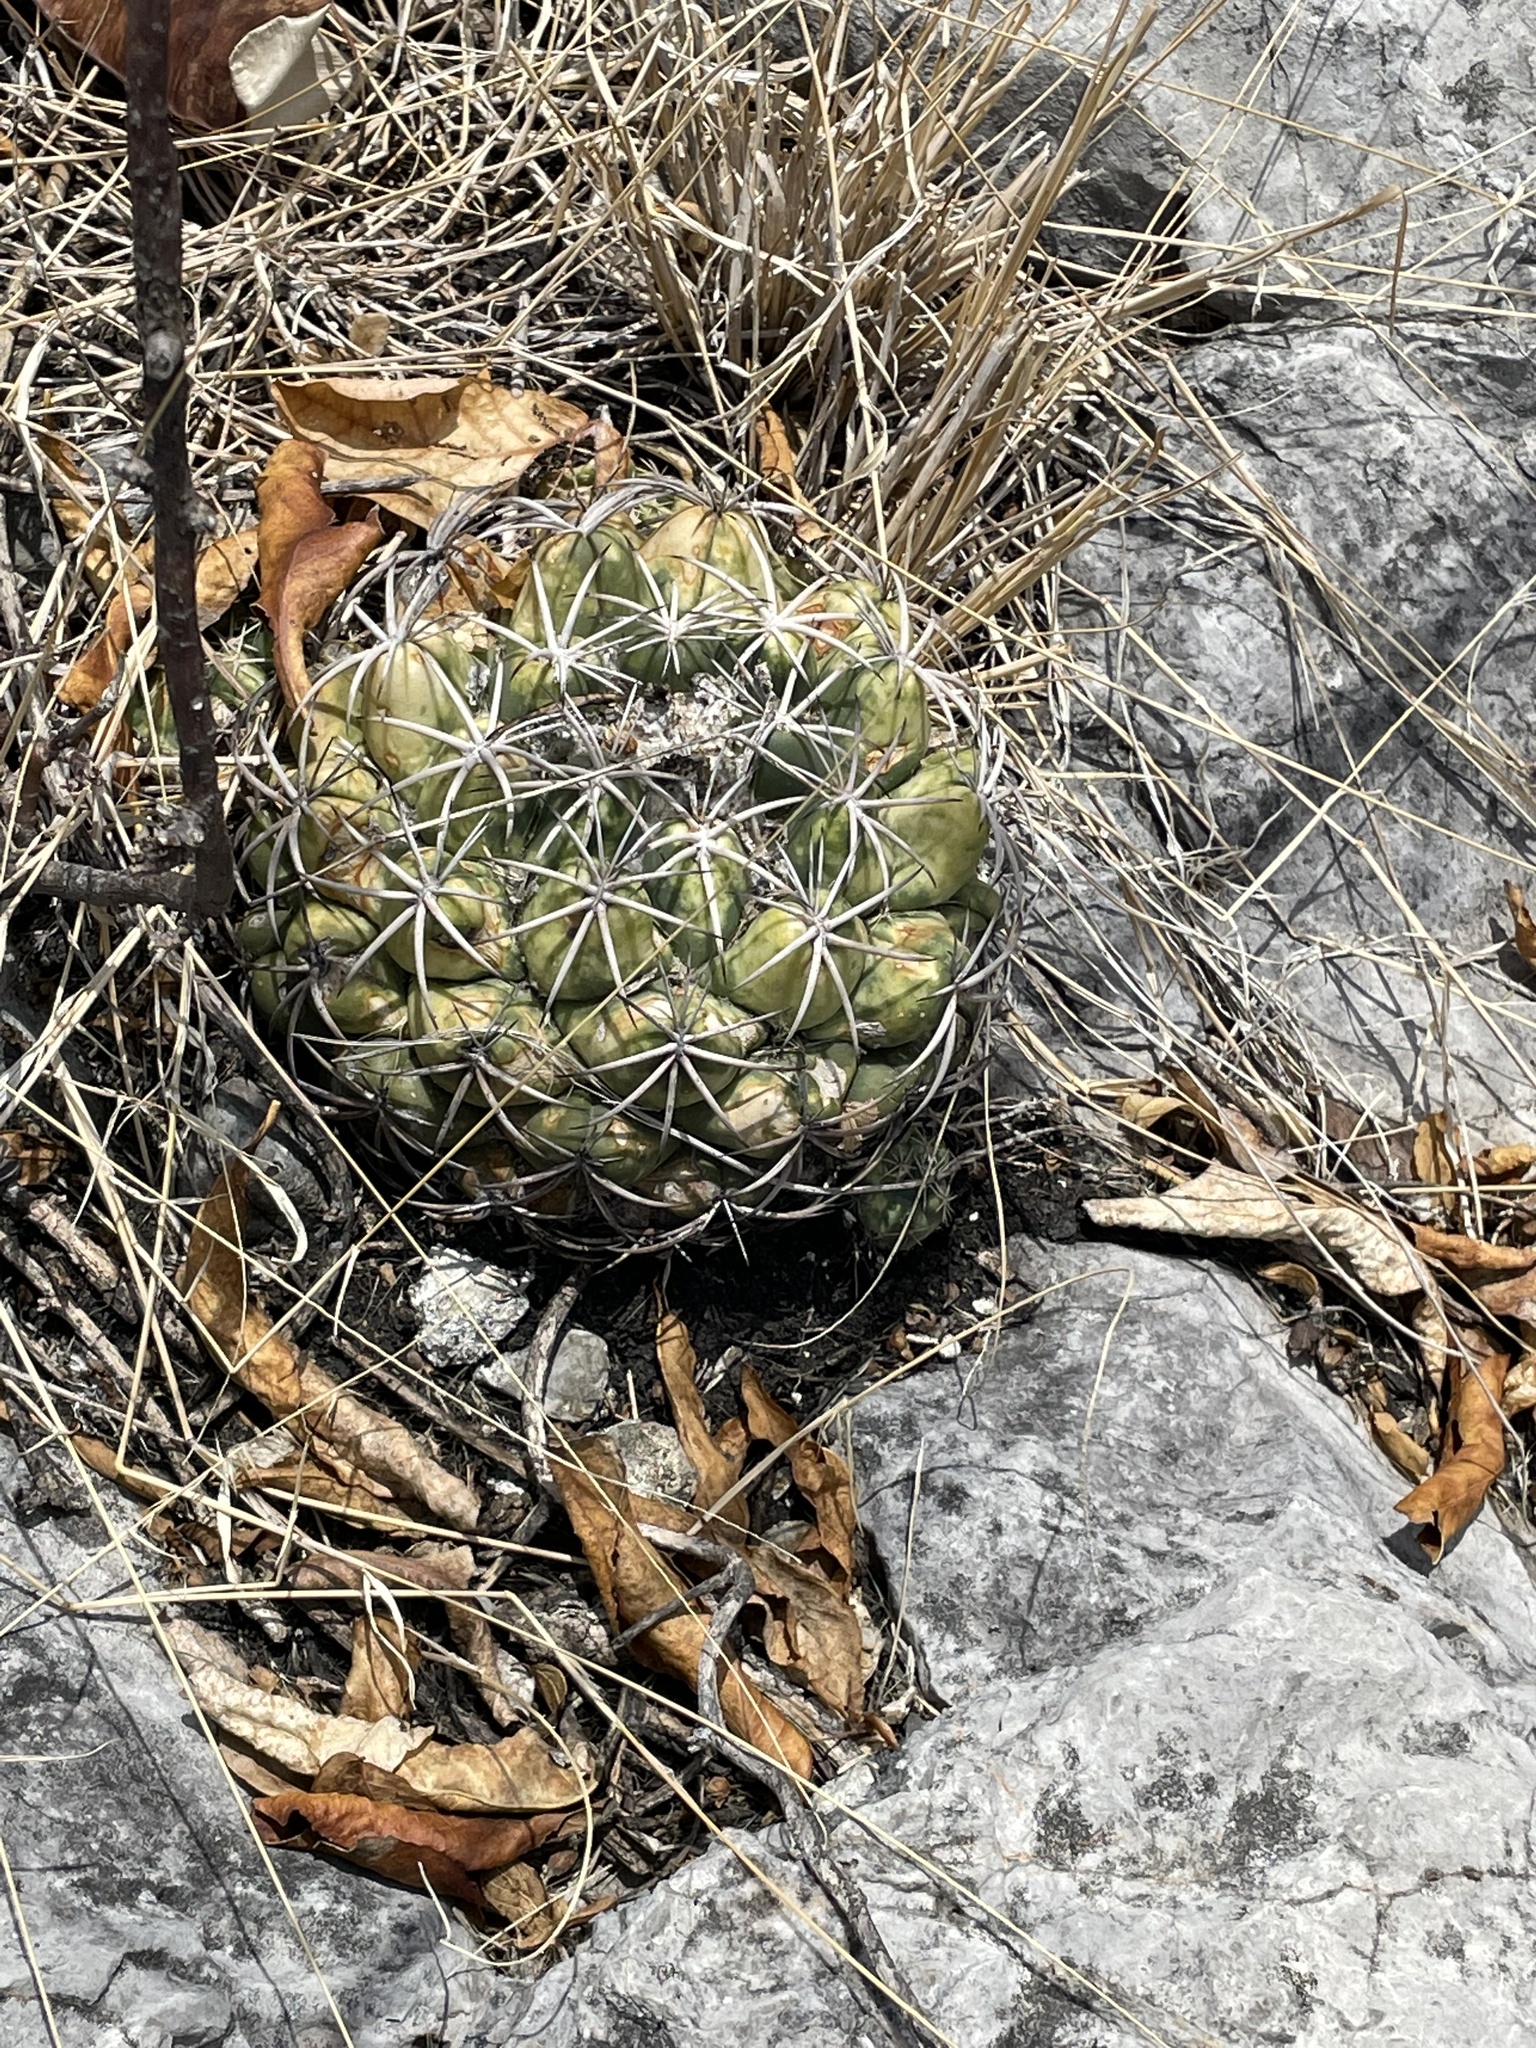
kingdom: Plantae
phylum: Tracheophyta
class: Magnoliopsida
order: Caryophyllales
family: Cactaceae
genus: Coryphantha
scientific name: Coryphantha elephantidens
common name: Elephant's tooth
